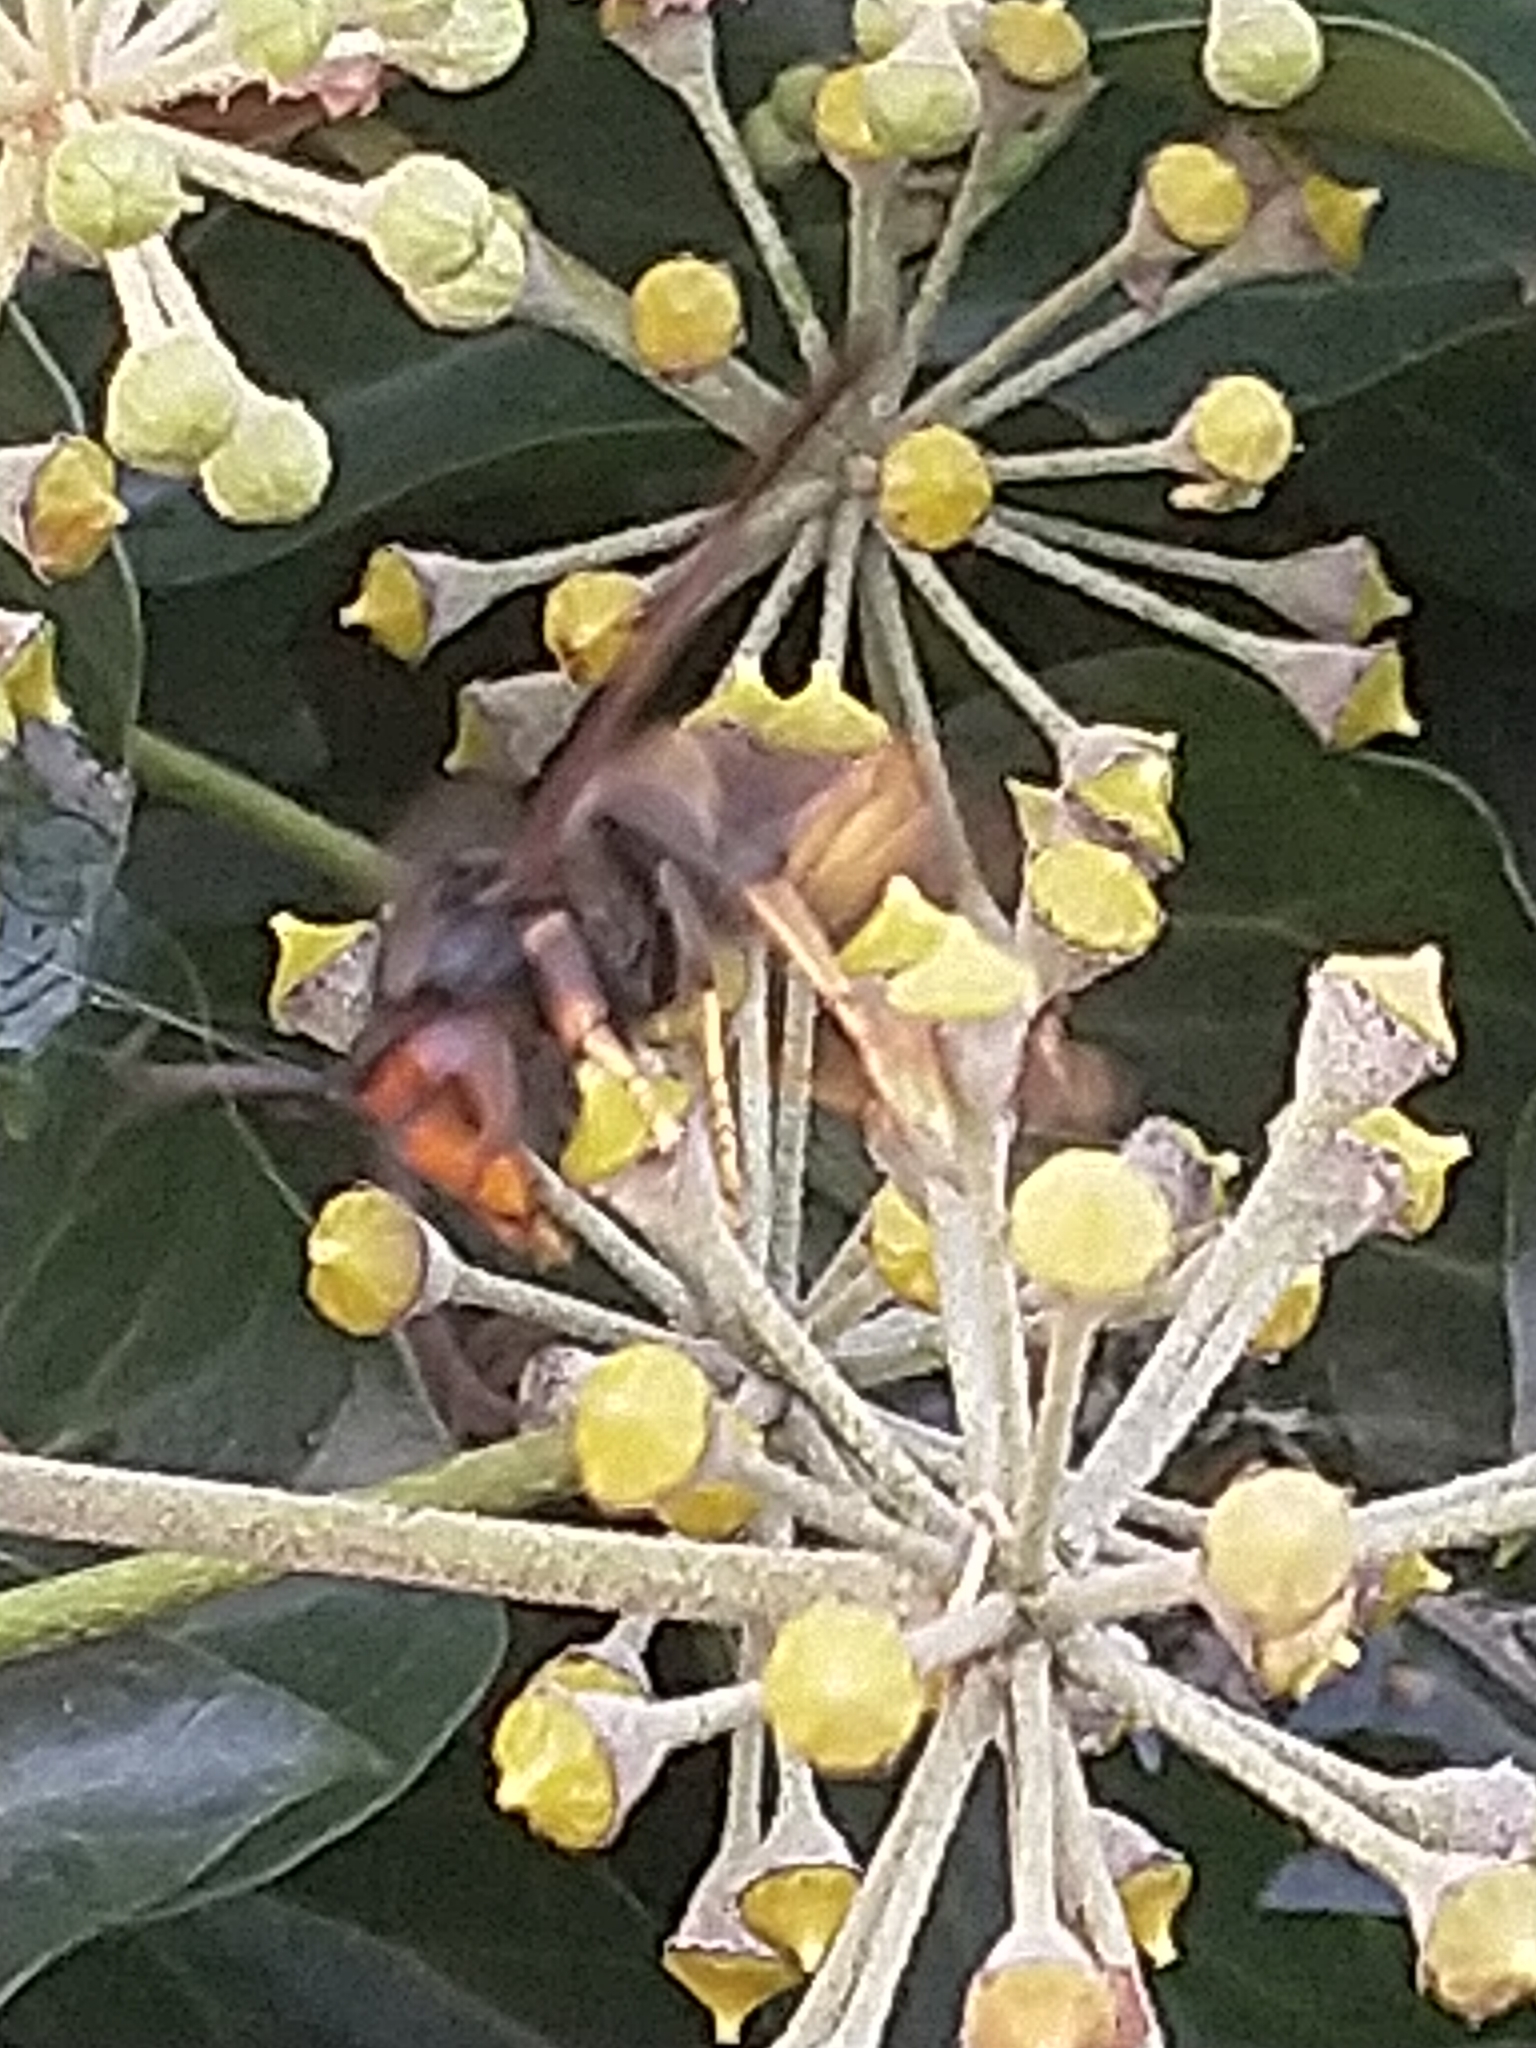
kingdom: Animalia
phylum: Arthropoda
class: Insecta
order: Hymenoptera
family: Vespidae
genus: Vespa
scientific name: Vespa velutina
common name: Asian hornet
